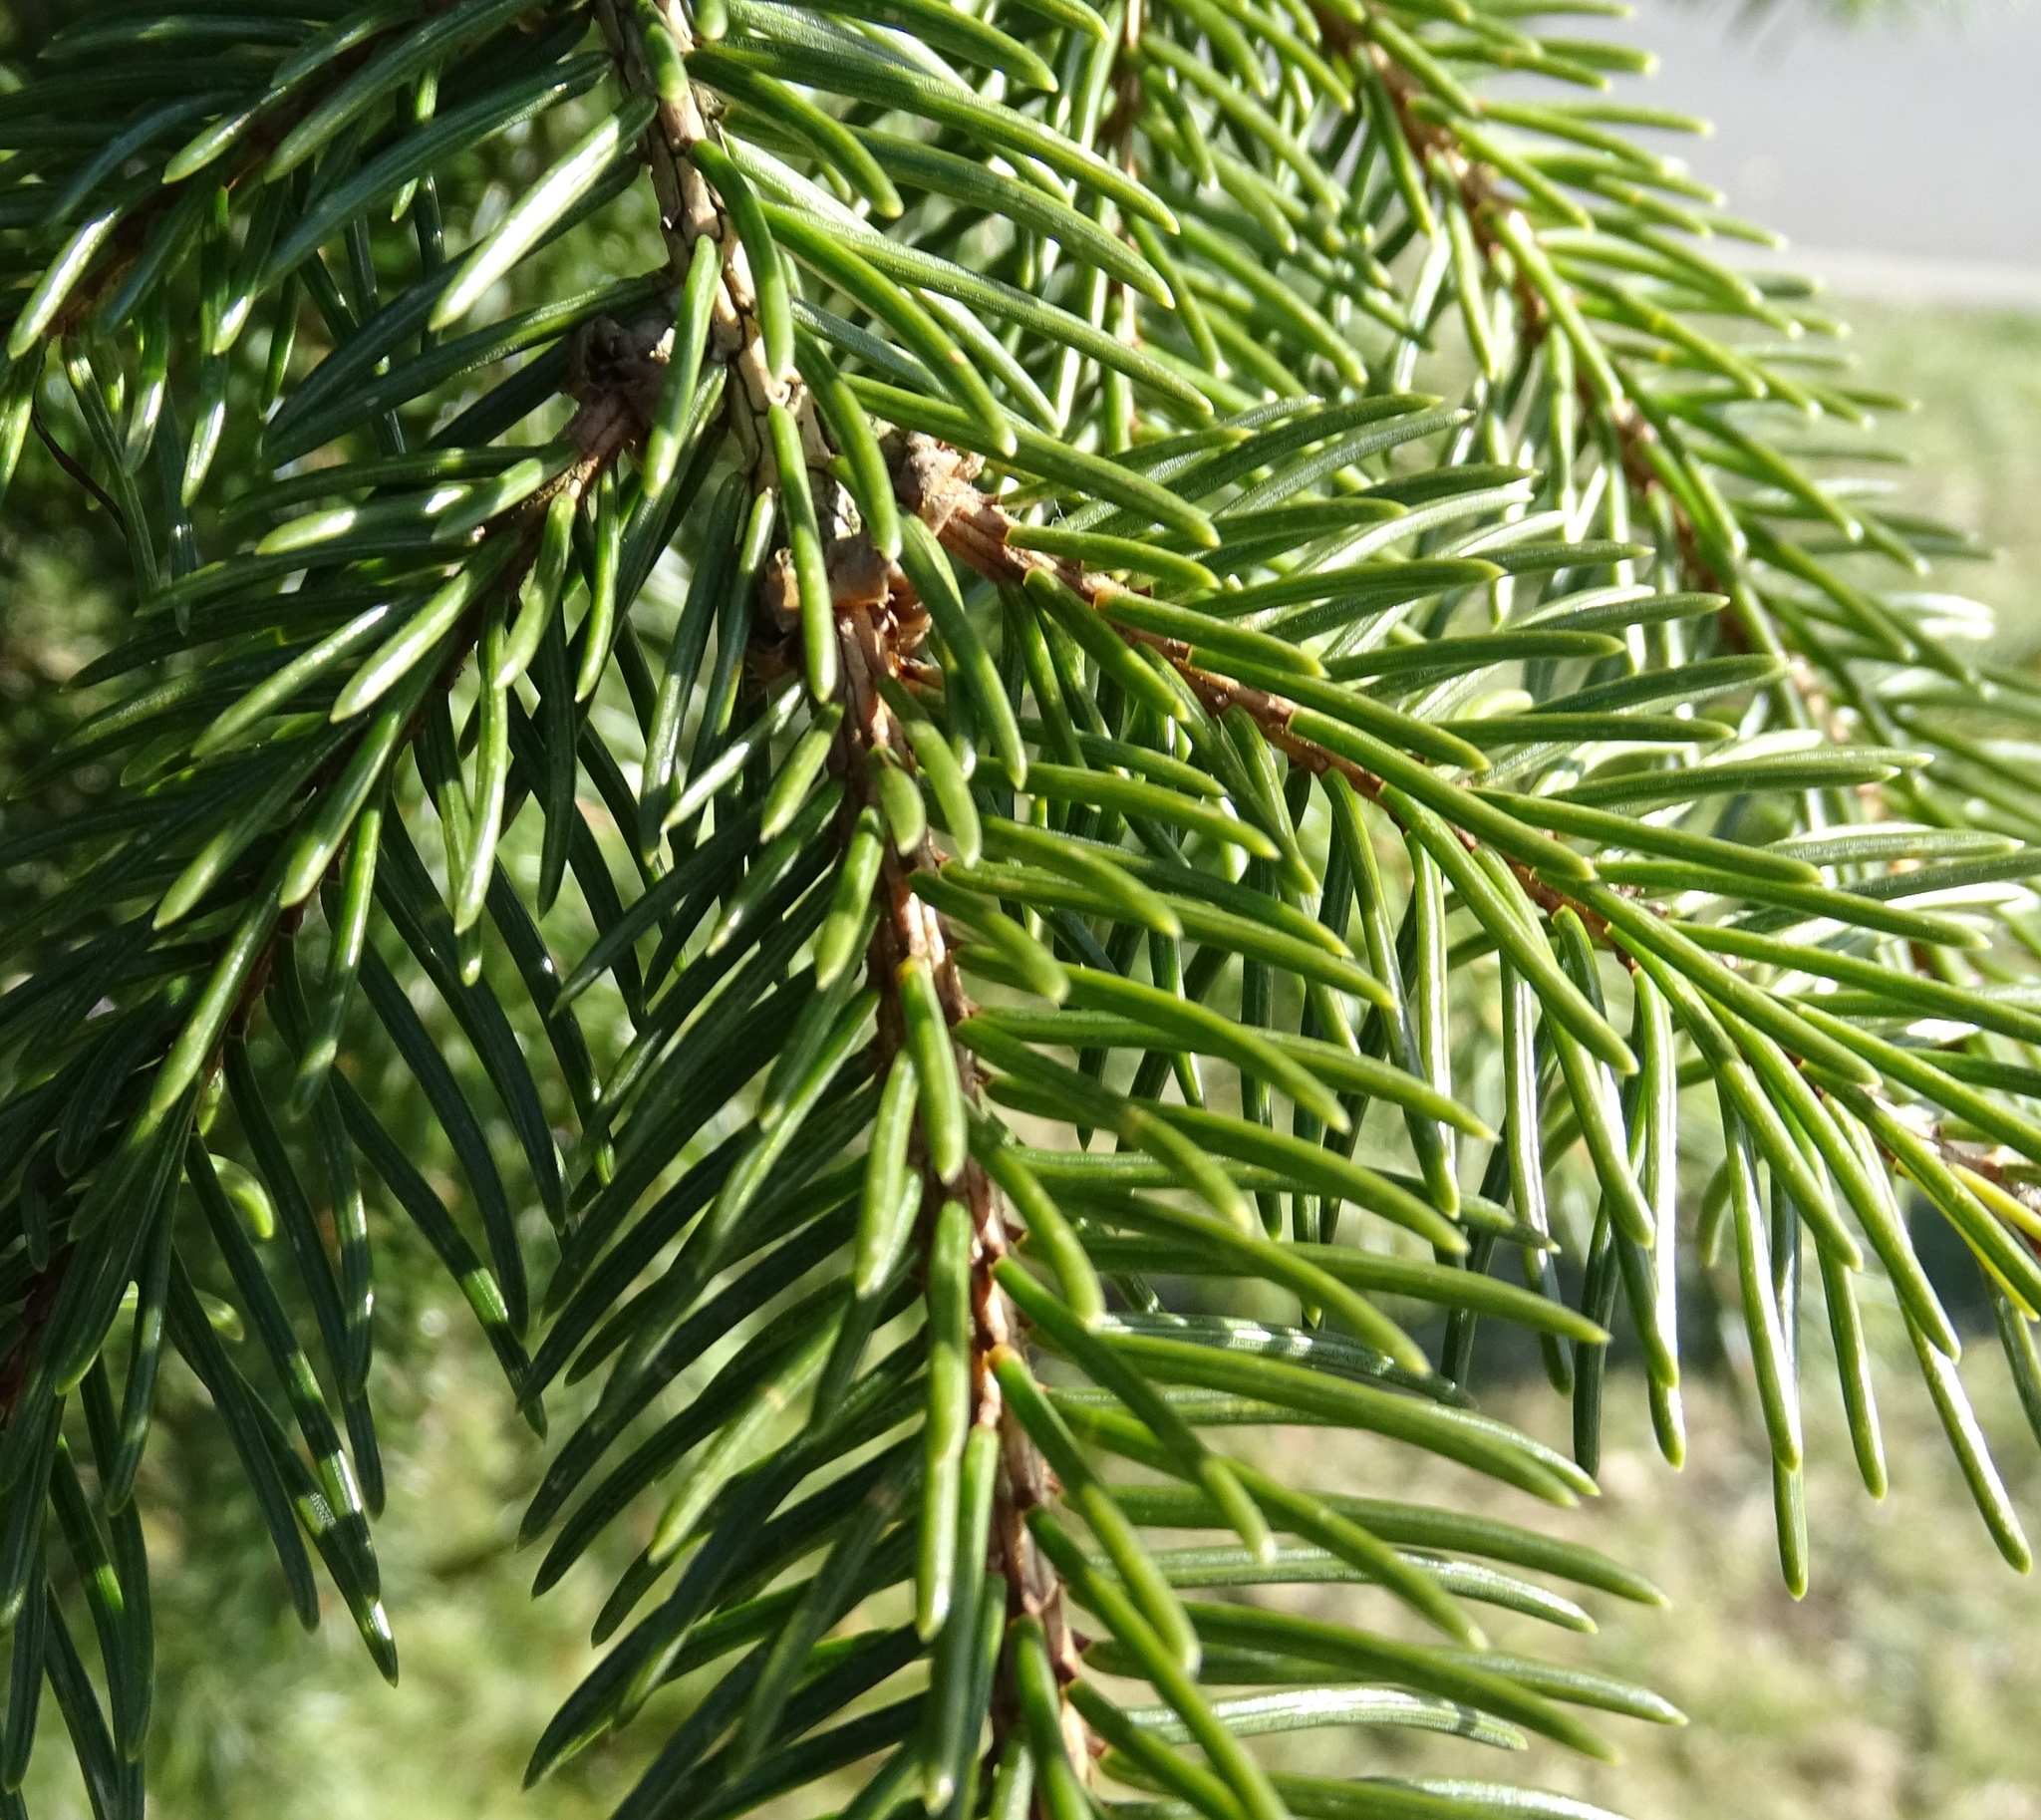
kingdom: Plantae
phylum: Tracheophyta
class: Pinopsida
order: Pinales
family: Pinaceae
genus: Picea
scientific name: Picea abies
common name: Norway spruce
